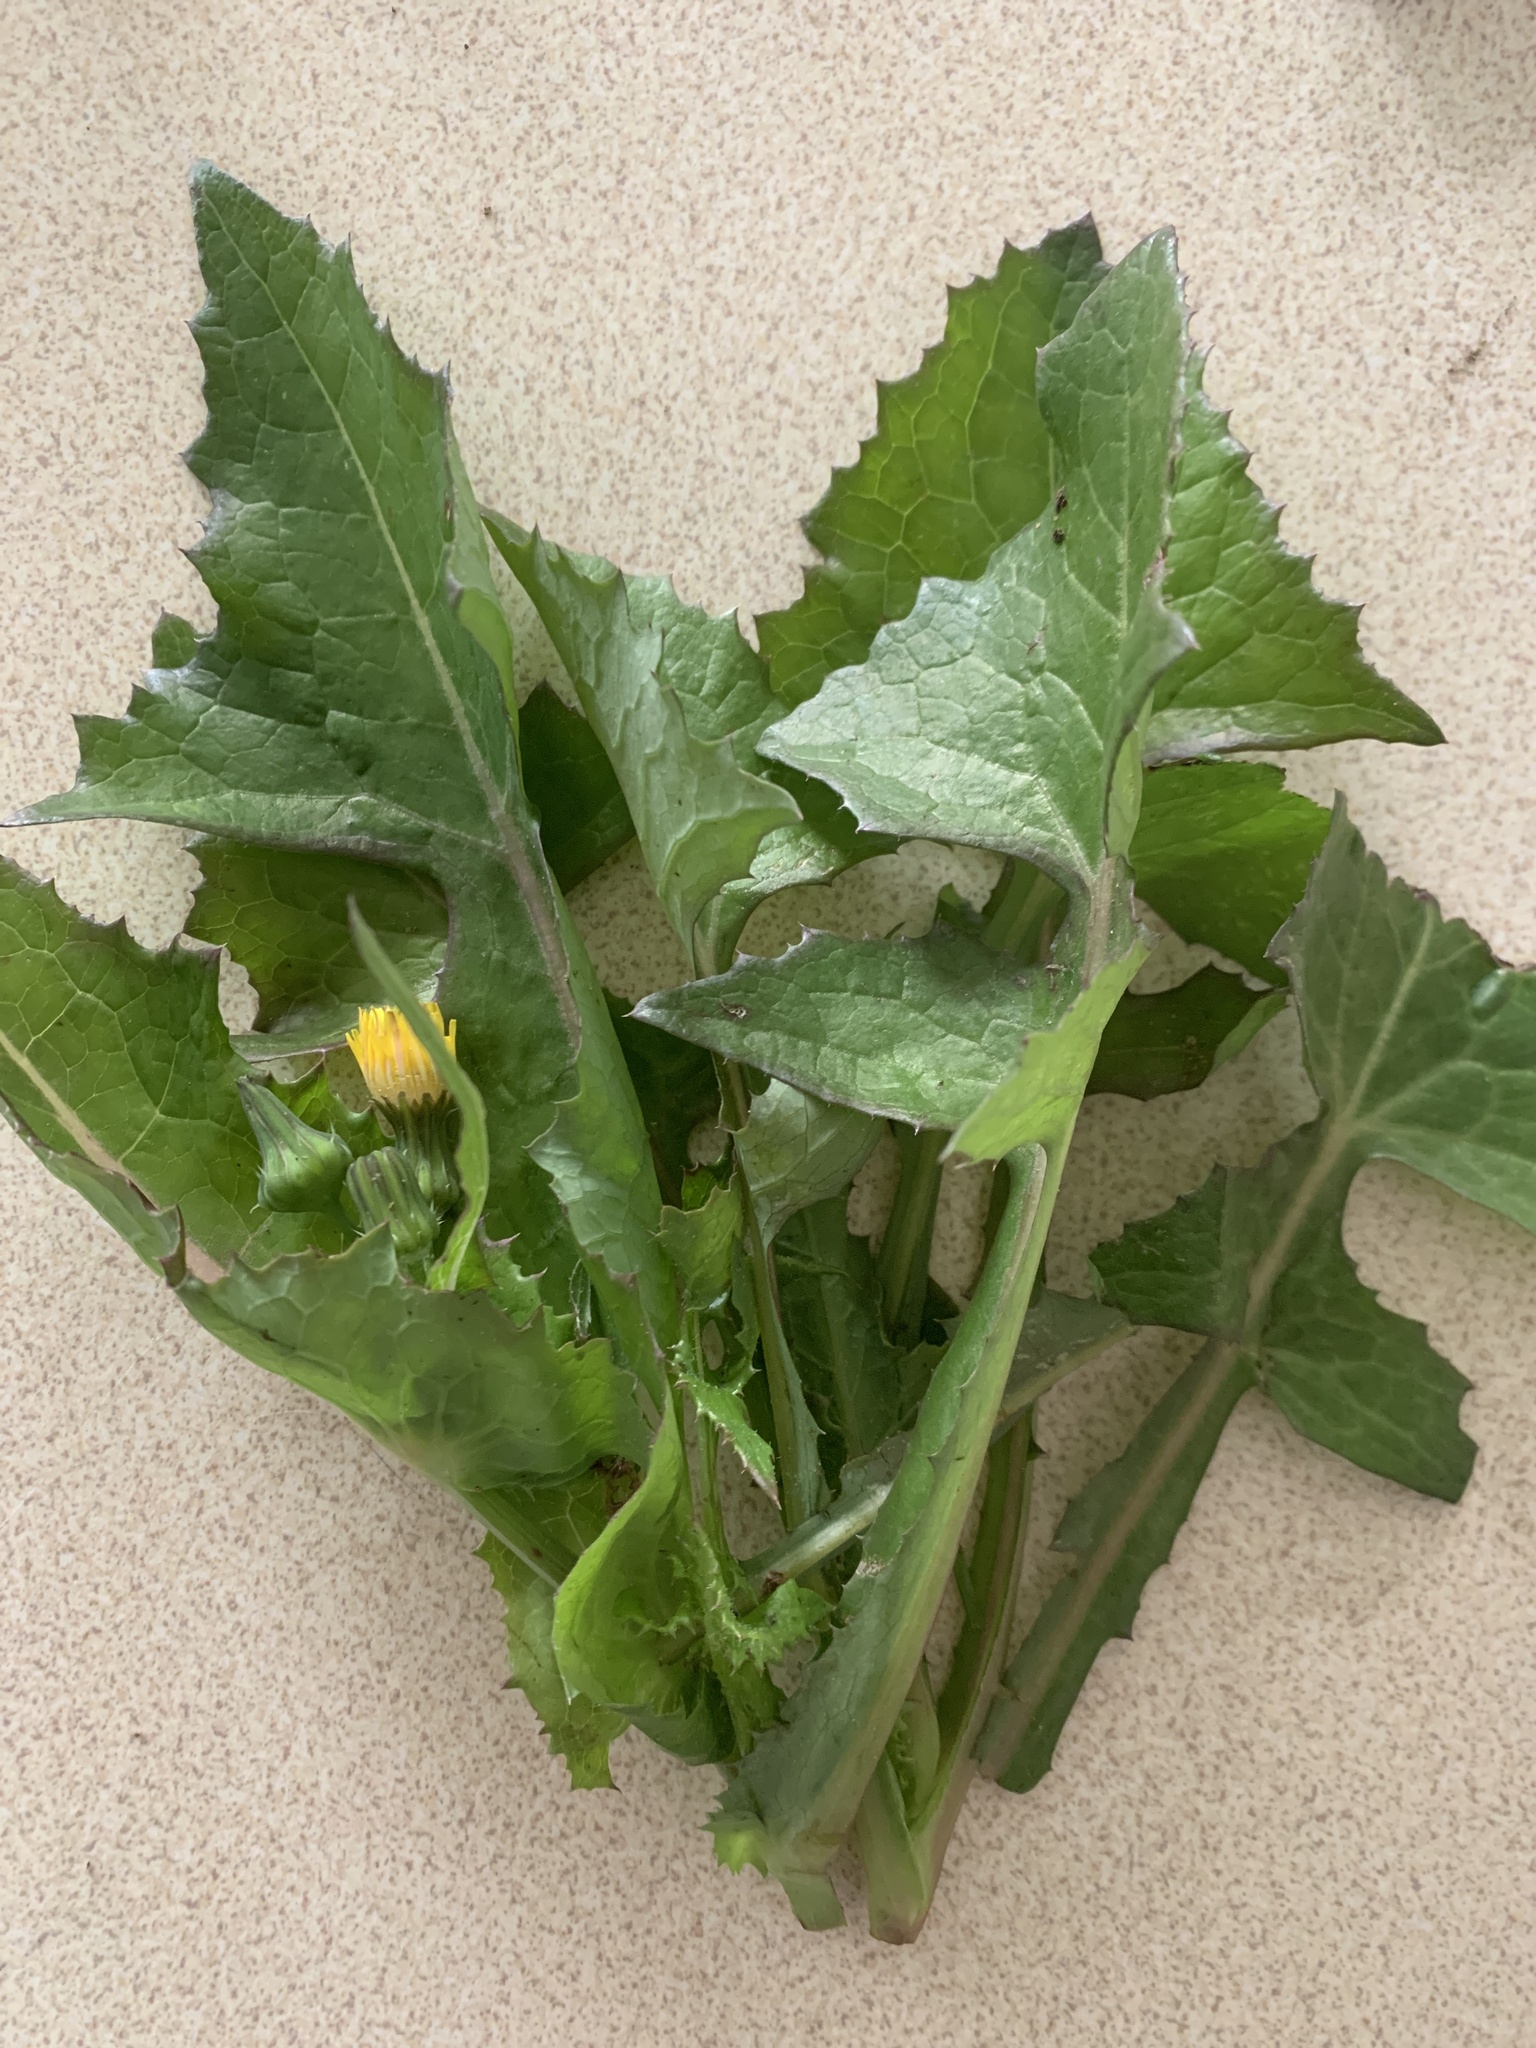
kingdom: Plantae
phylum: Tracheophyta
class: Magnoliopsida
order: Asterales
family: Asteraceae
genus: Sonchus
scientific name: Sonchus oleraceus
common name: Common sowthistle
